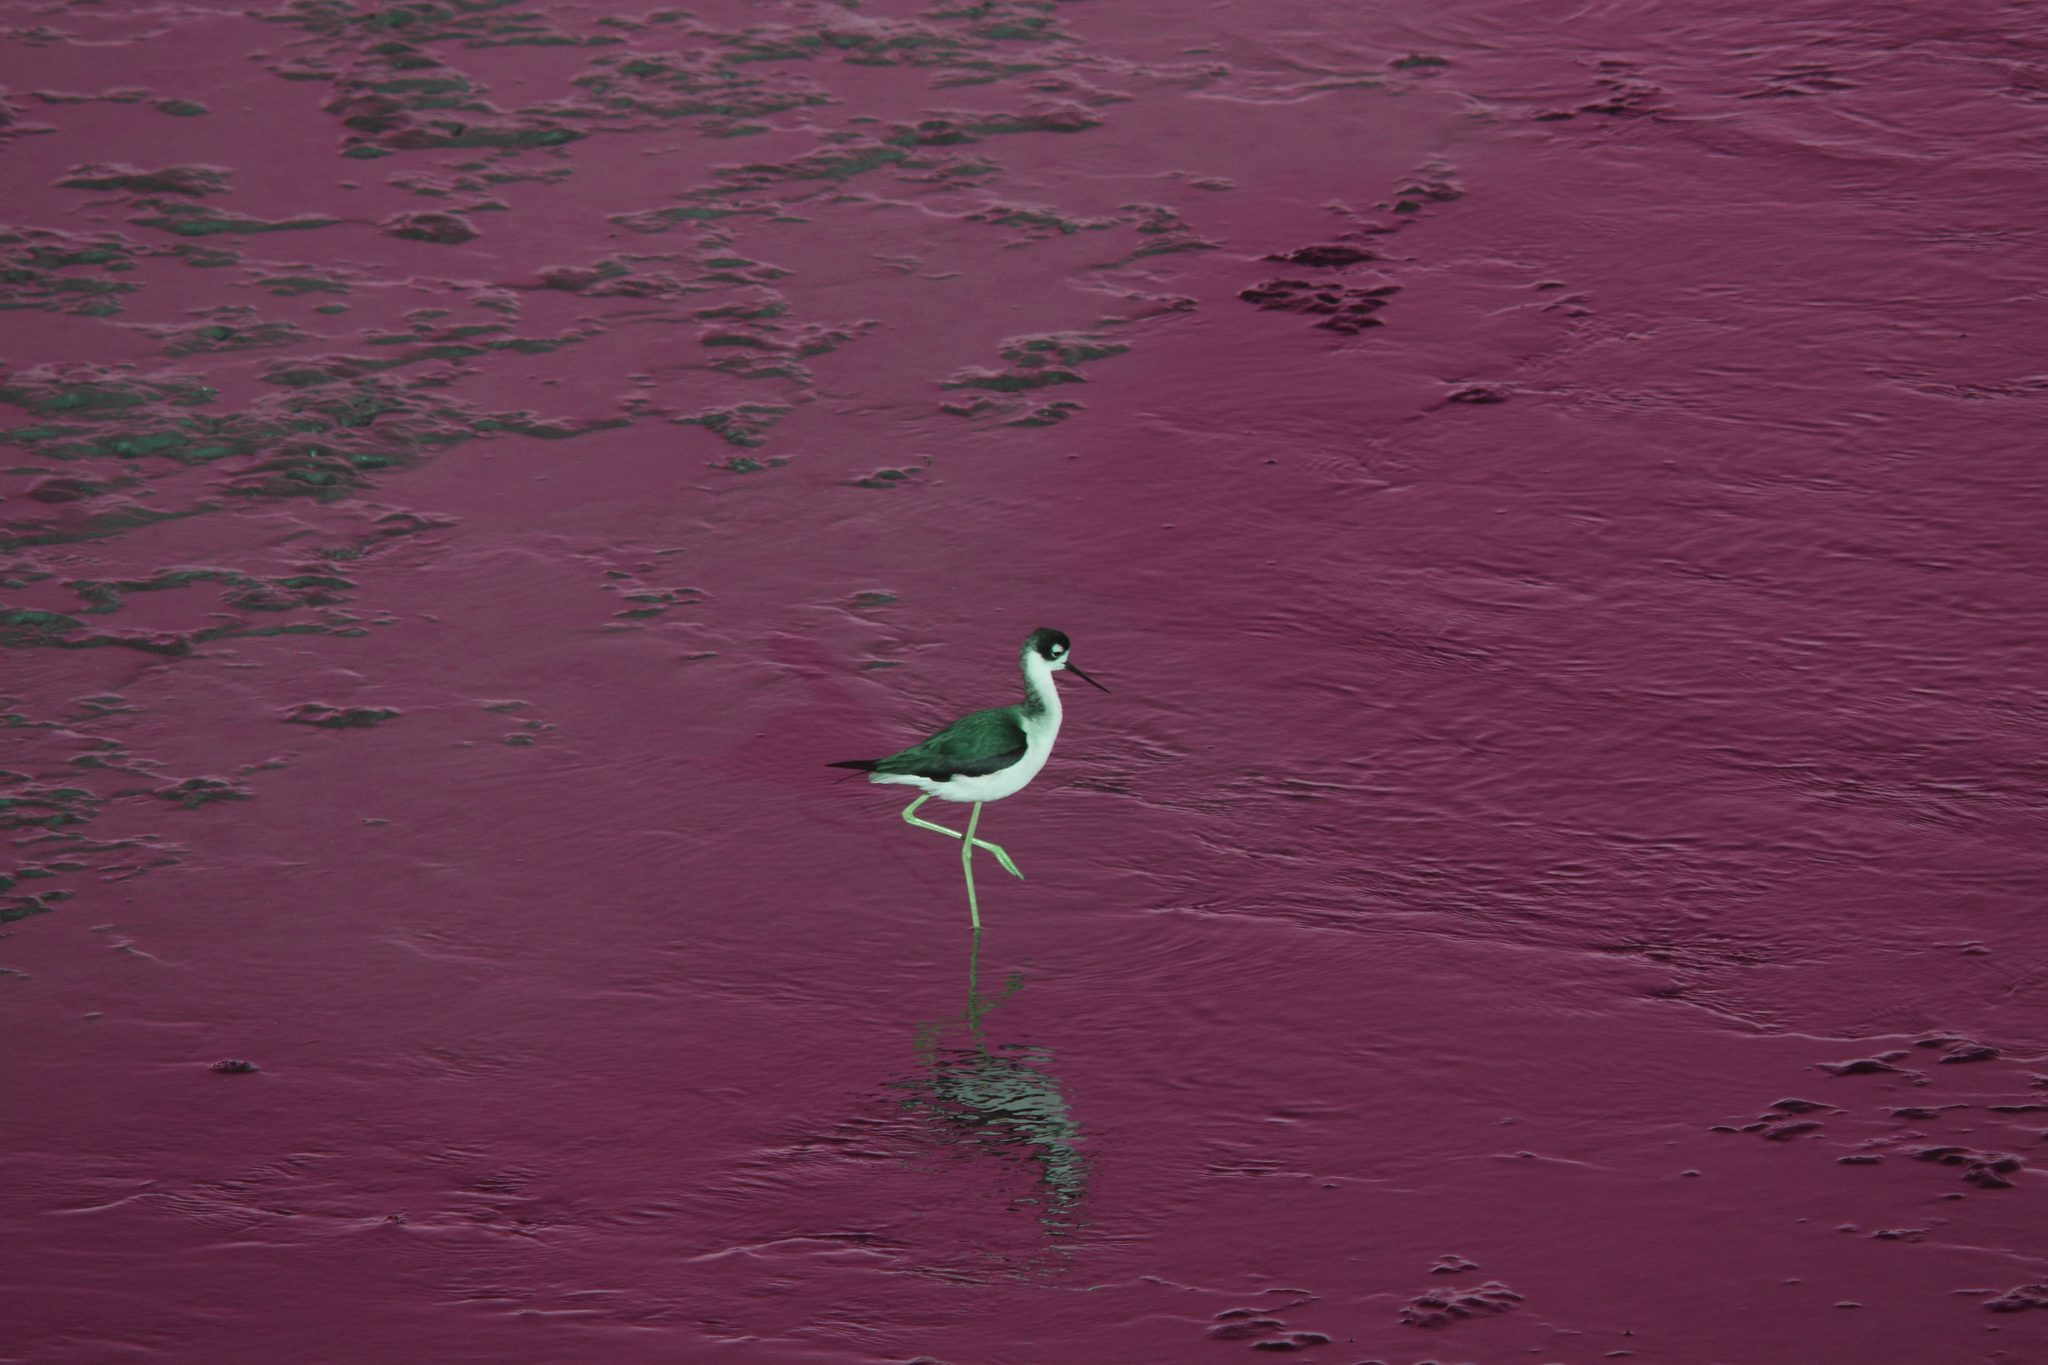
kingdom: Animalia
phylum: Chordata
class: Aves
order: Charadriiformes
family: Recurvirostridae
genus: Himantopus
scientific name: Himantopus mexicanus
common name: Black-necked stilt
